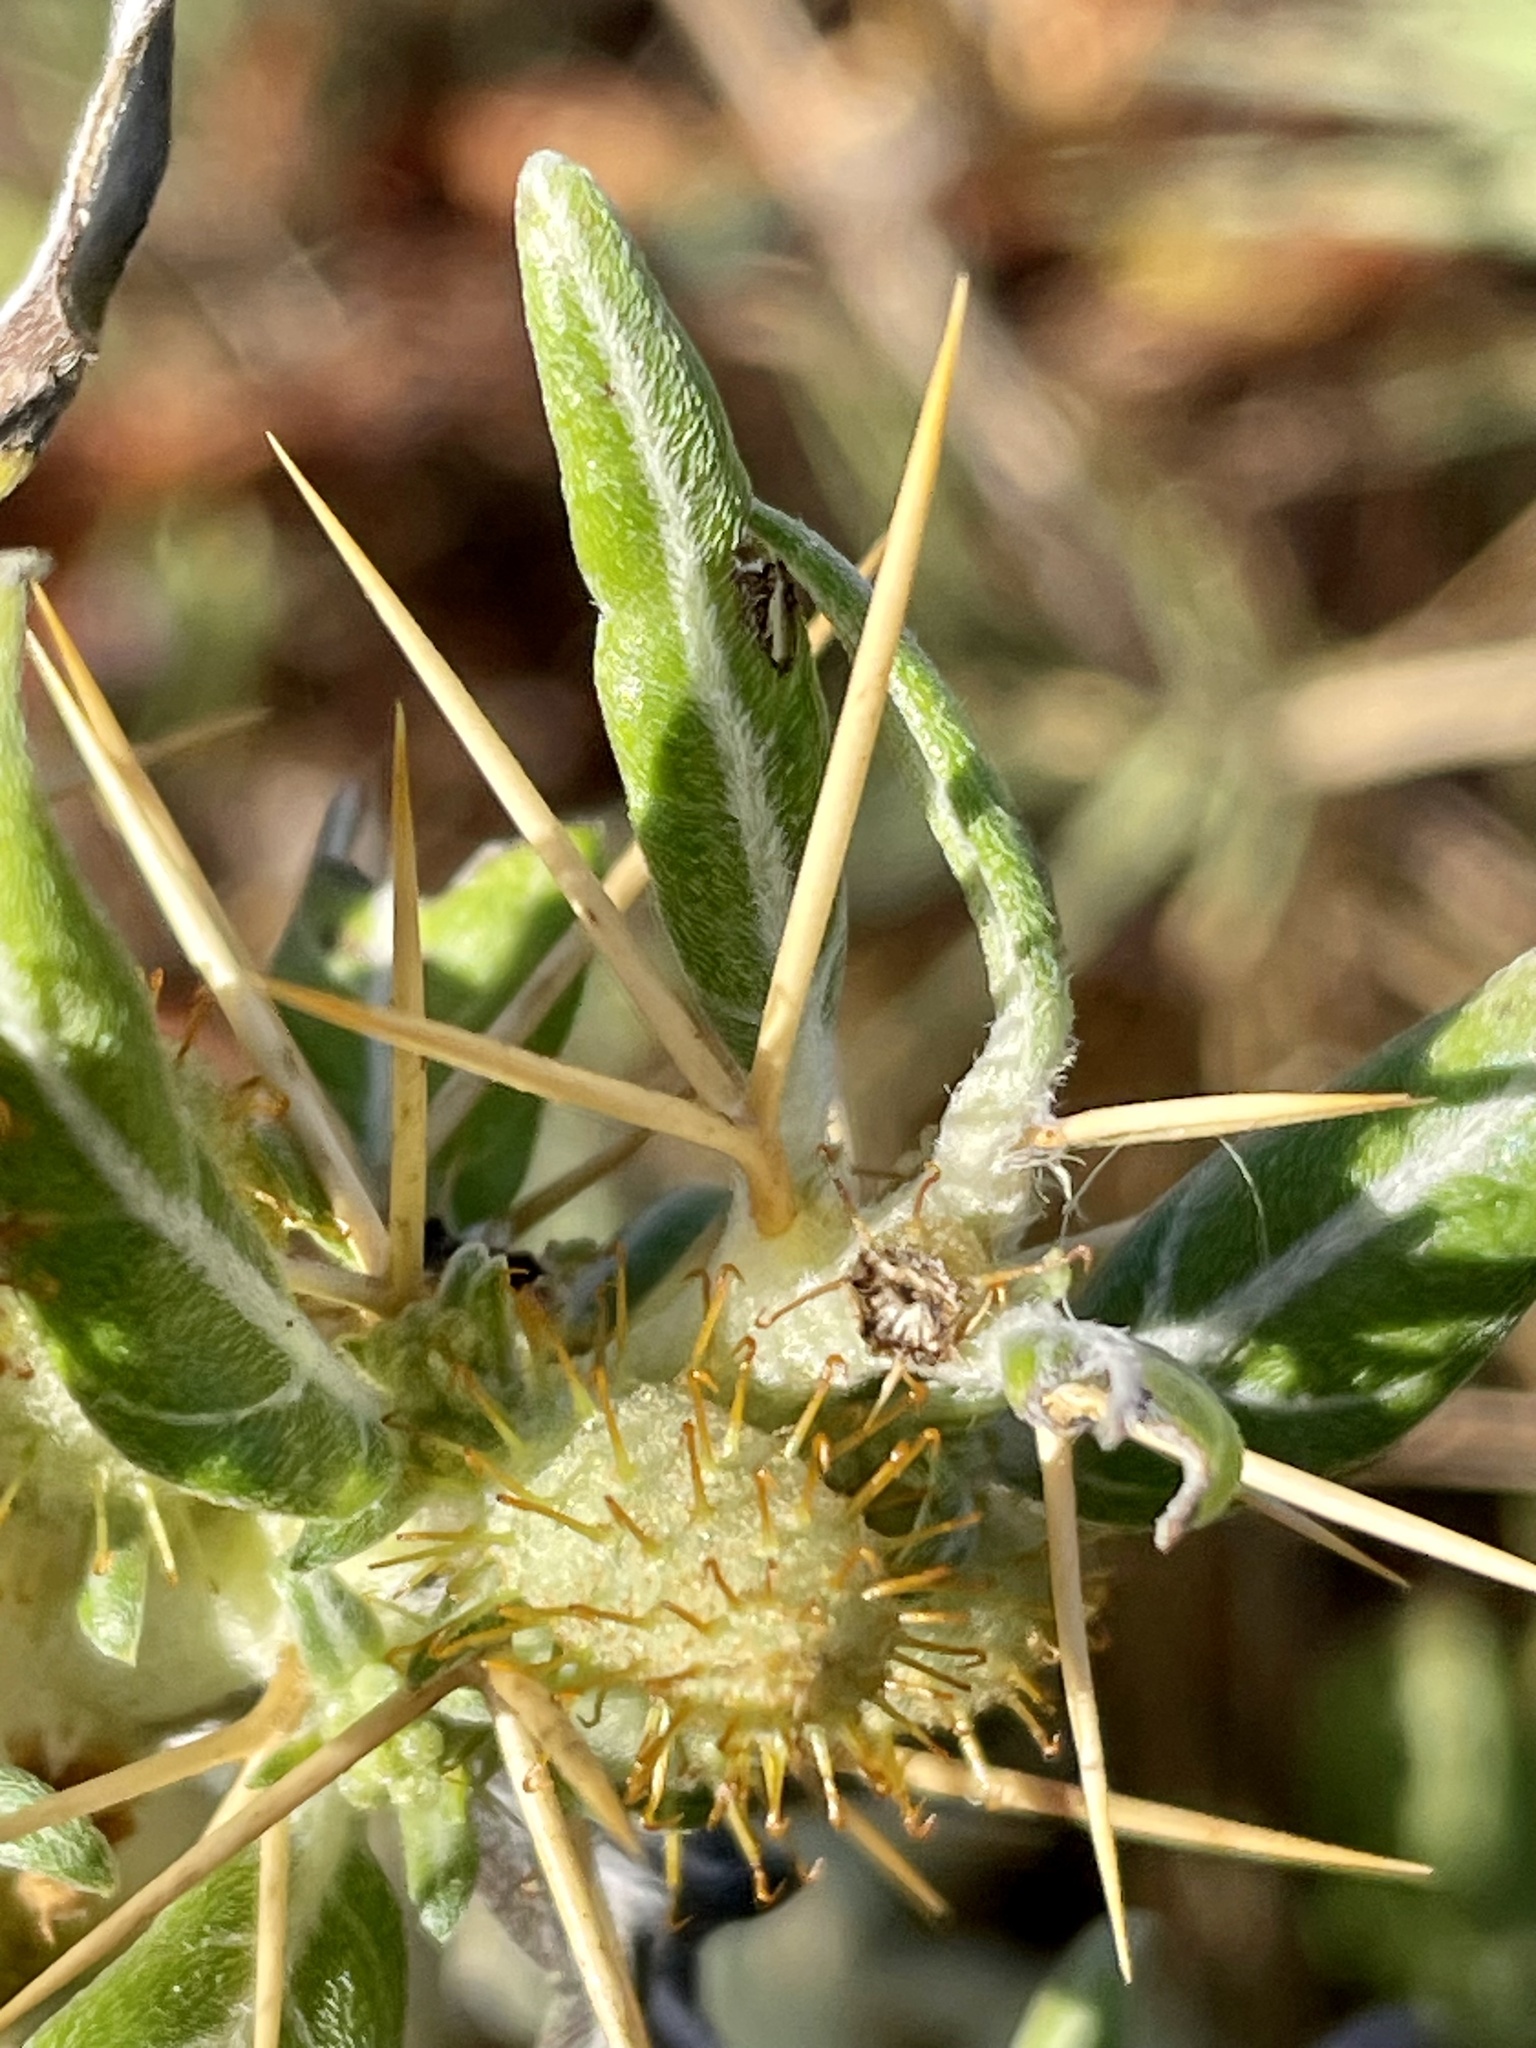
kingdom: Plantae
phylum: Tracheophyta
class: Magnoliopsida
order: Asterales
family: Asteraceae
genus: Xanthium
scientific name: Xanthium spinosum
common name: Spiny cocklebur
